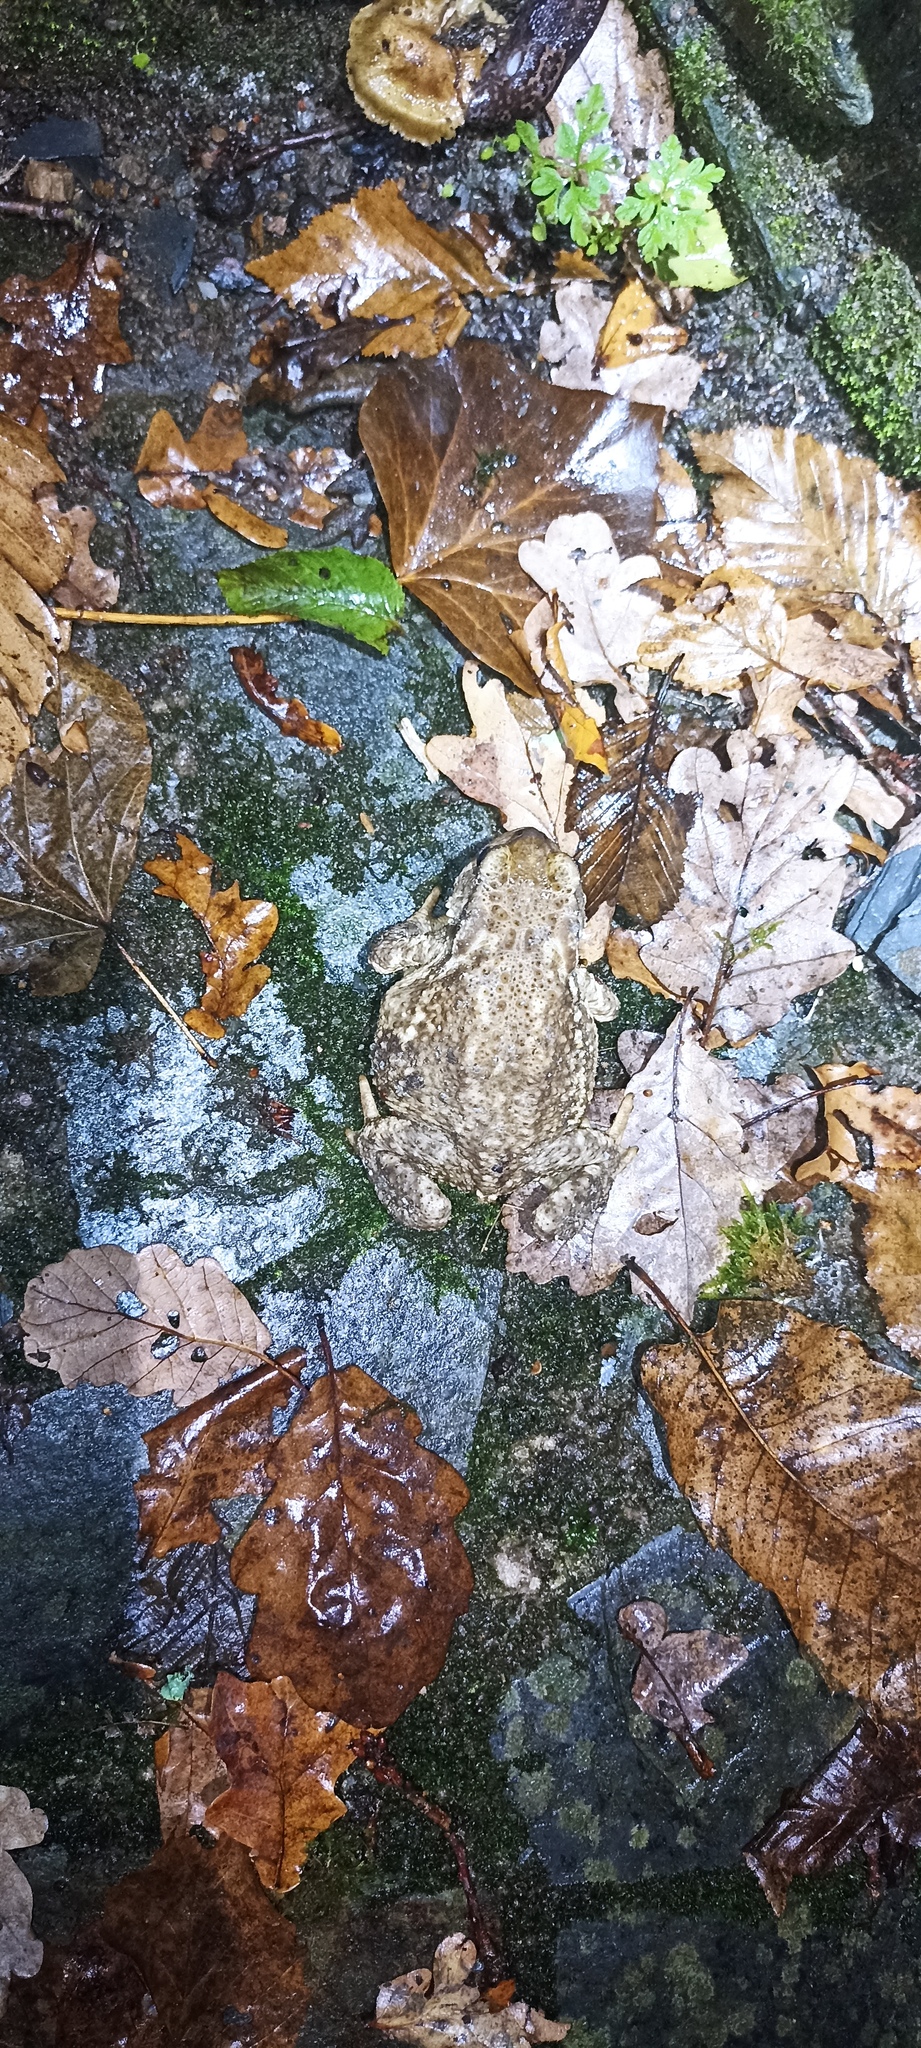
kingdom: Animalia
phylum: Chordata
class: Amphibia
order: Anura
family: Bufonidae
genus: Bufo
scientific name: Bufo spinosus
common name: Western common toad
